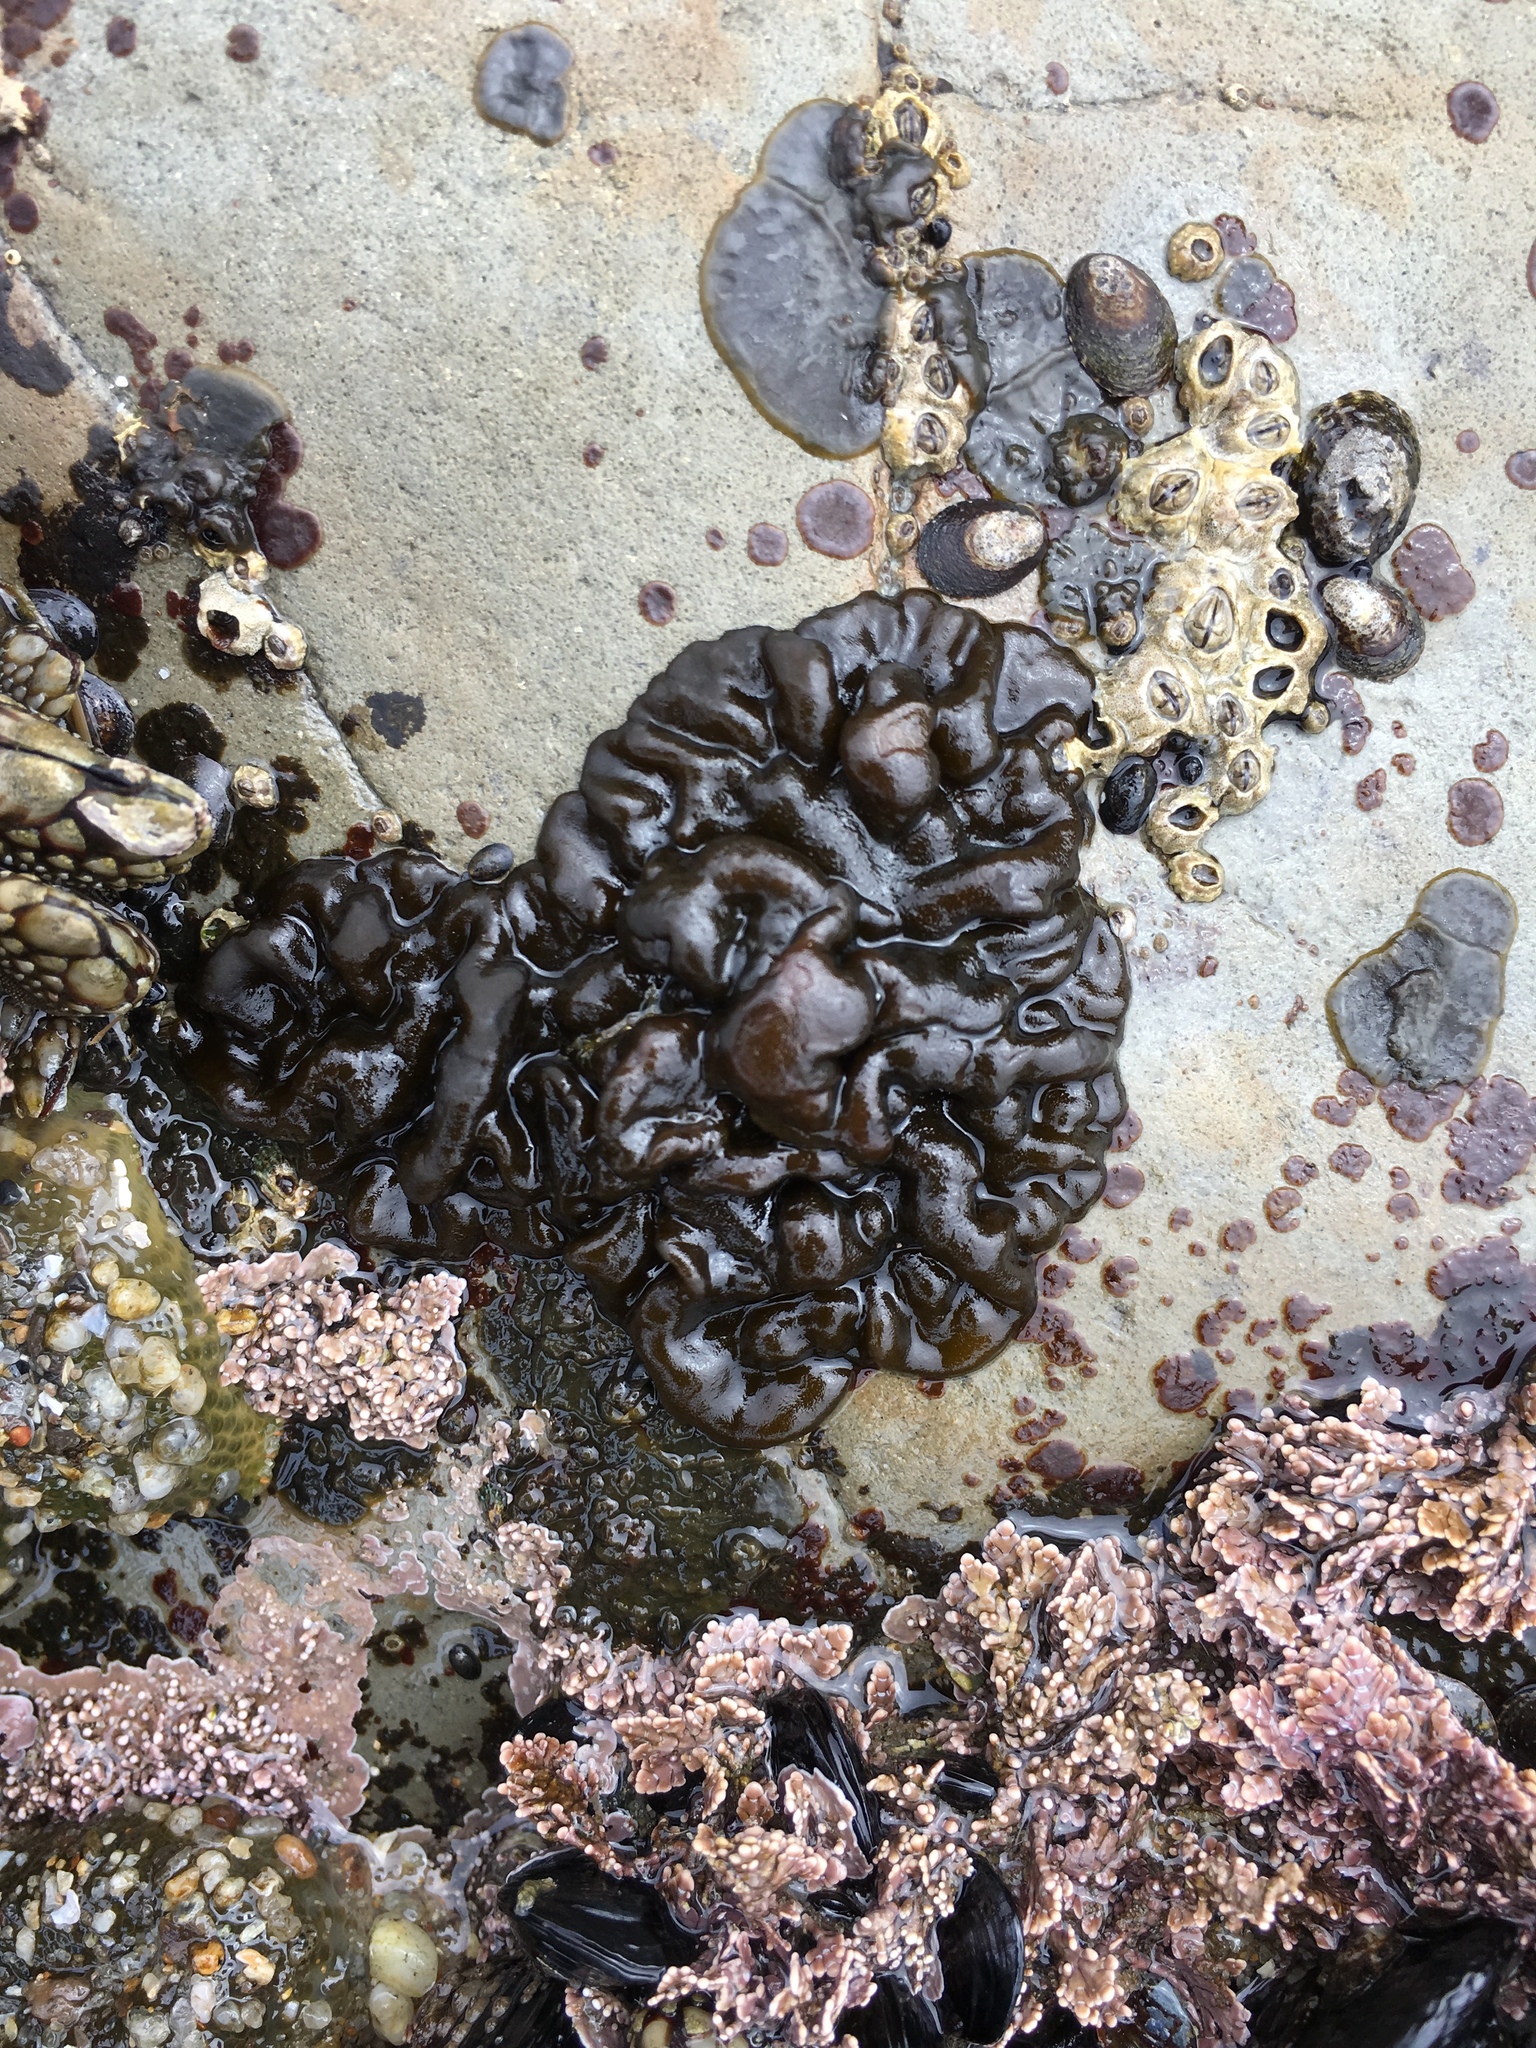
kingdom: Chromista
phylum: Ochrophyta
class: Phaeophyceae
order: Ectocarpales
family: Petrospongiaceae
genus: Petrospongium
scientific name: Petrospongium rugosum
